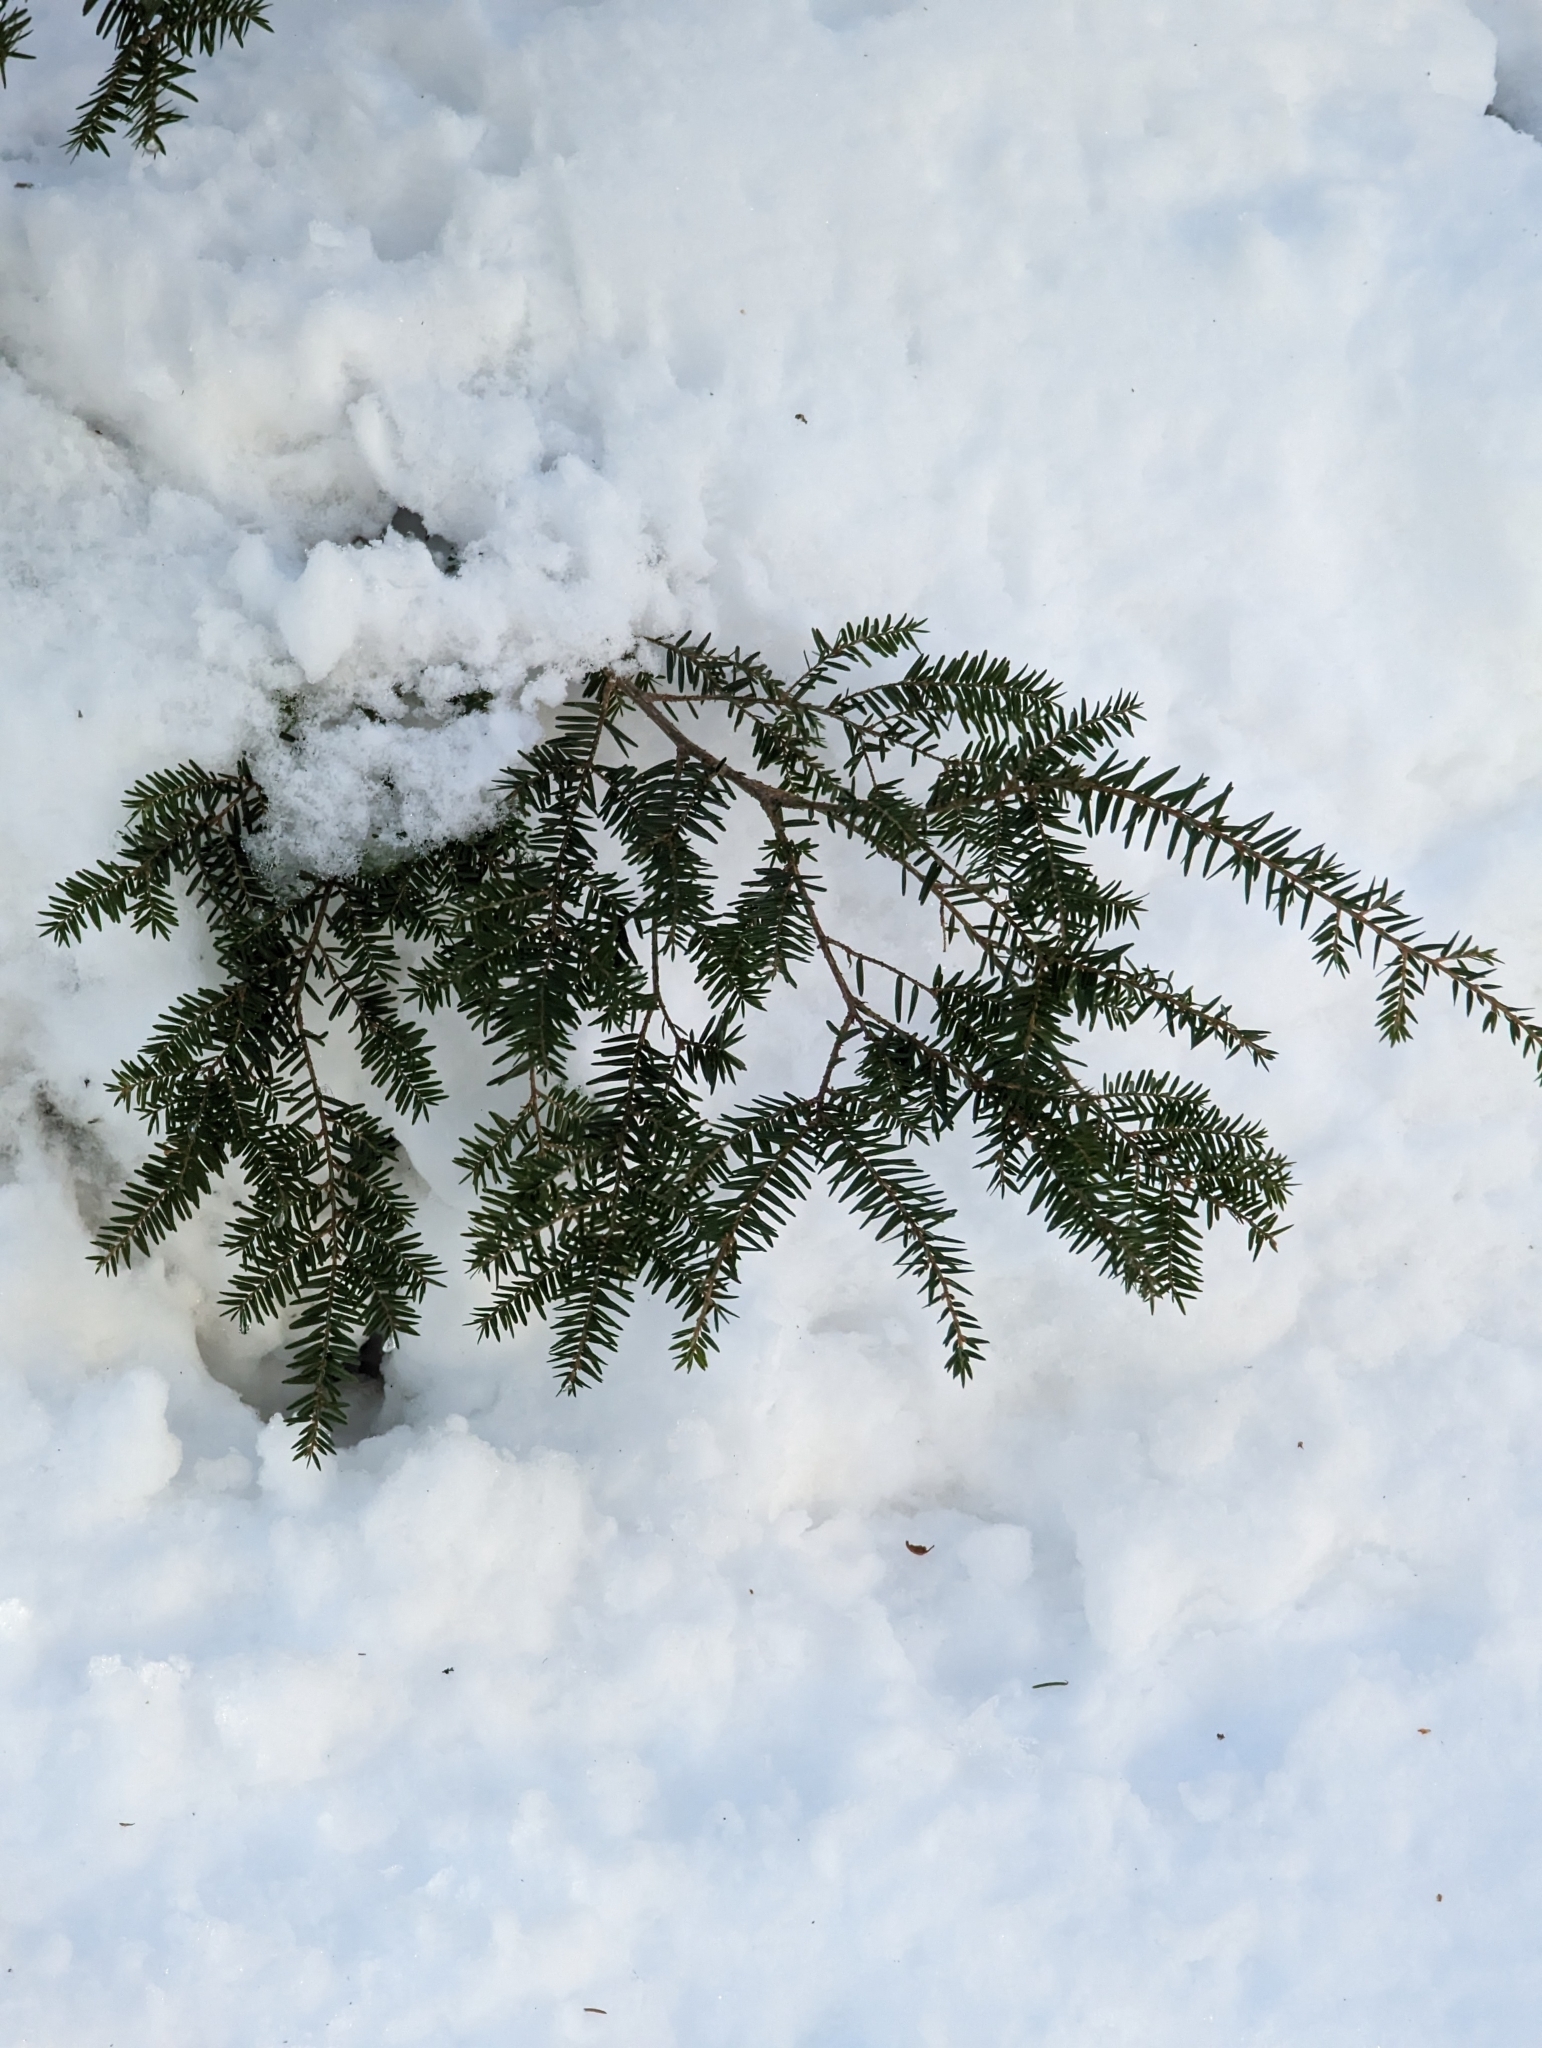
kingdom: Plantae
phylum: Tracheophyta
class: Pinopsida
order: Pinales
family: Pinaceae
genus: Tsuga
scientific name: Tsuga canadensis
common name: Eastern hemlock
